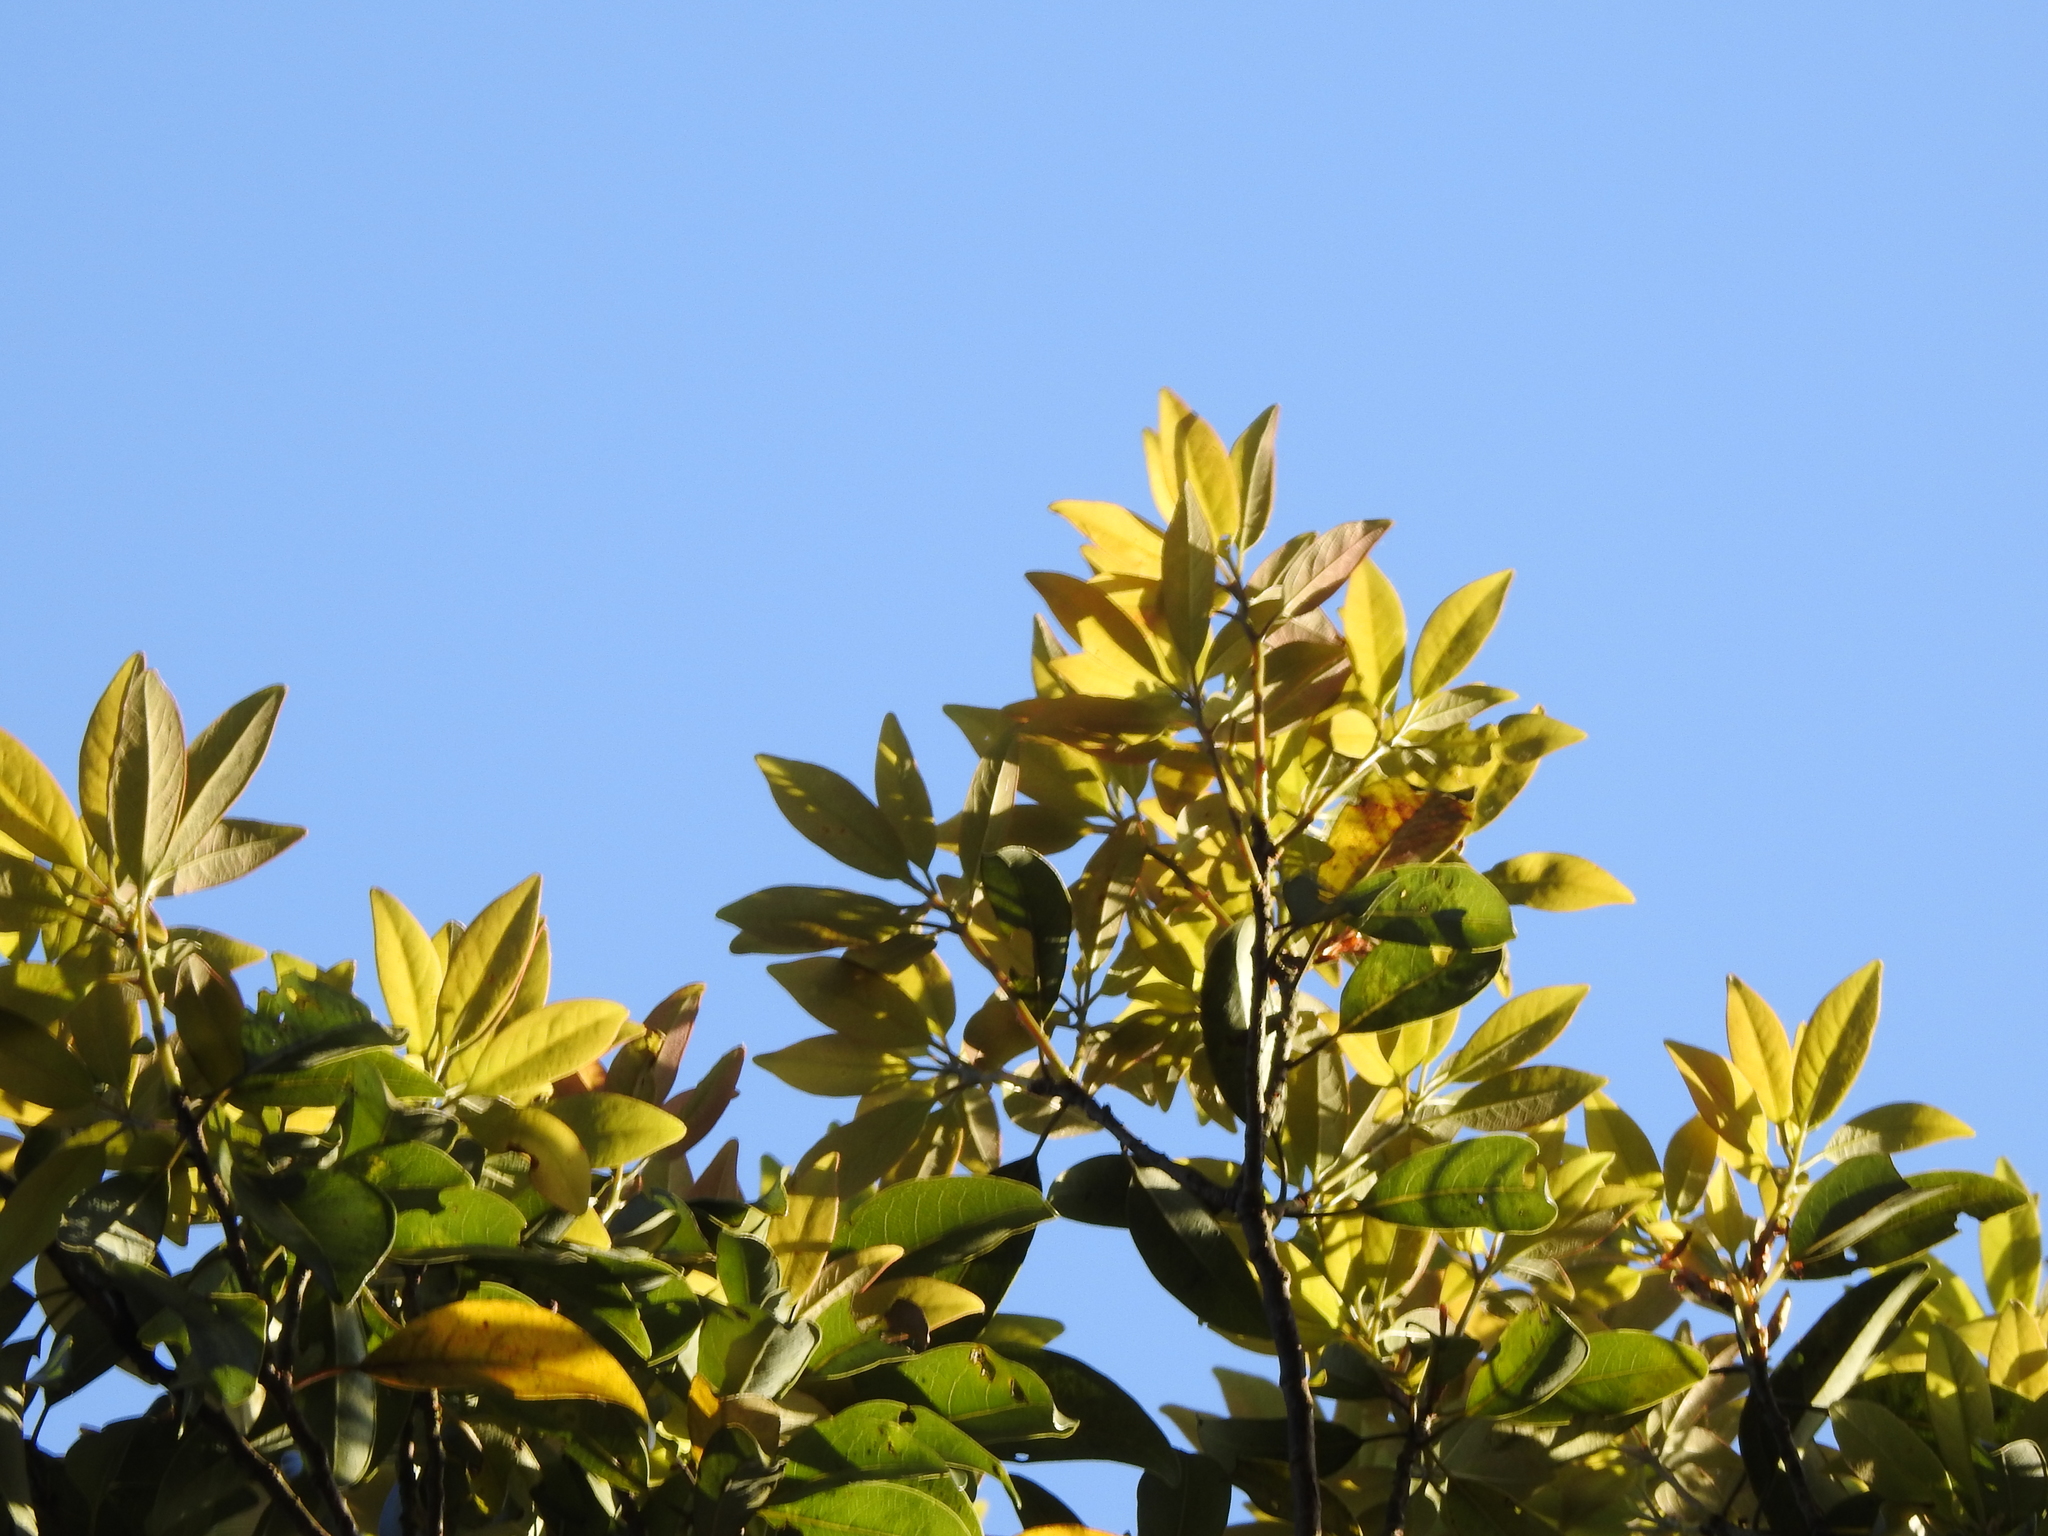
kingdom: Plantae
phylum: Tracheophyta
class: Magnoliopsida
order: Laurales
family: Lauraceae
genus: Litsea
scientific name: Litsea coreana
